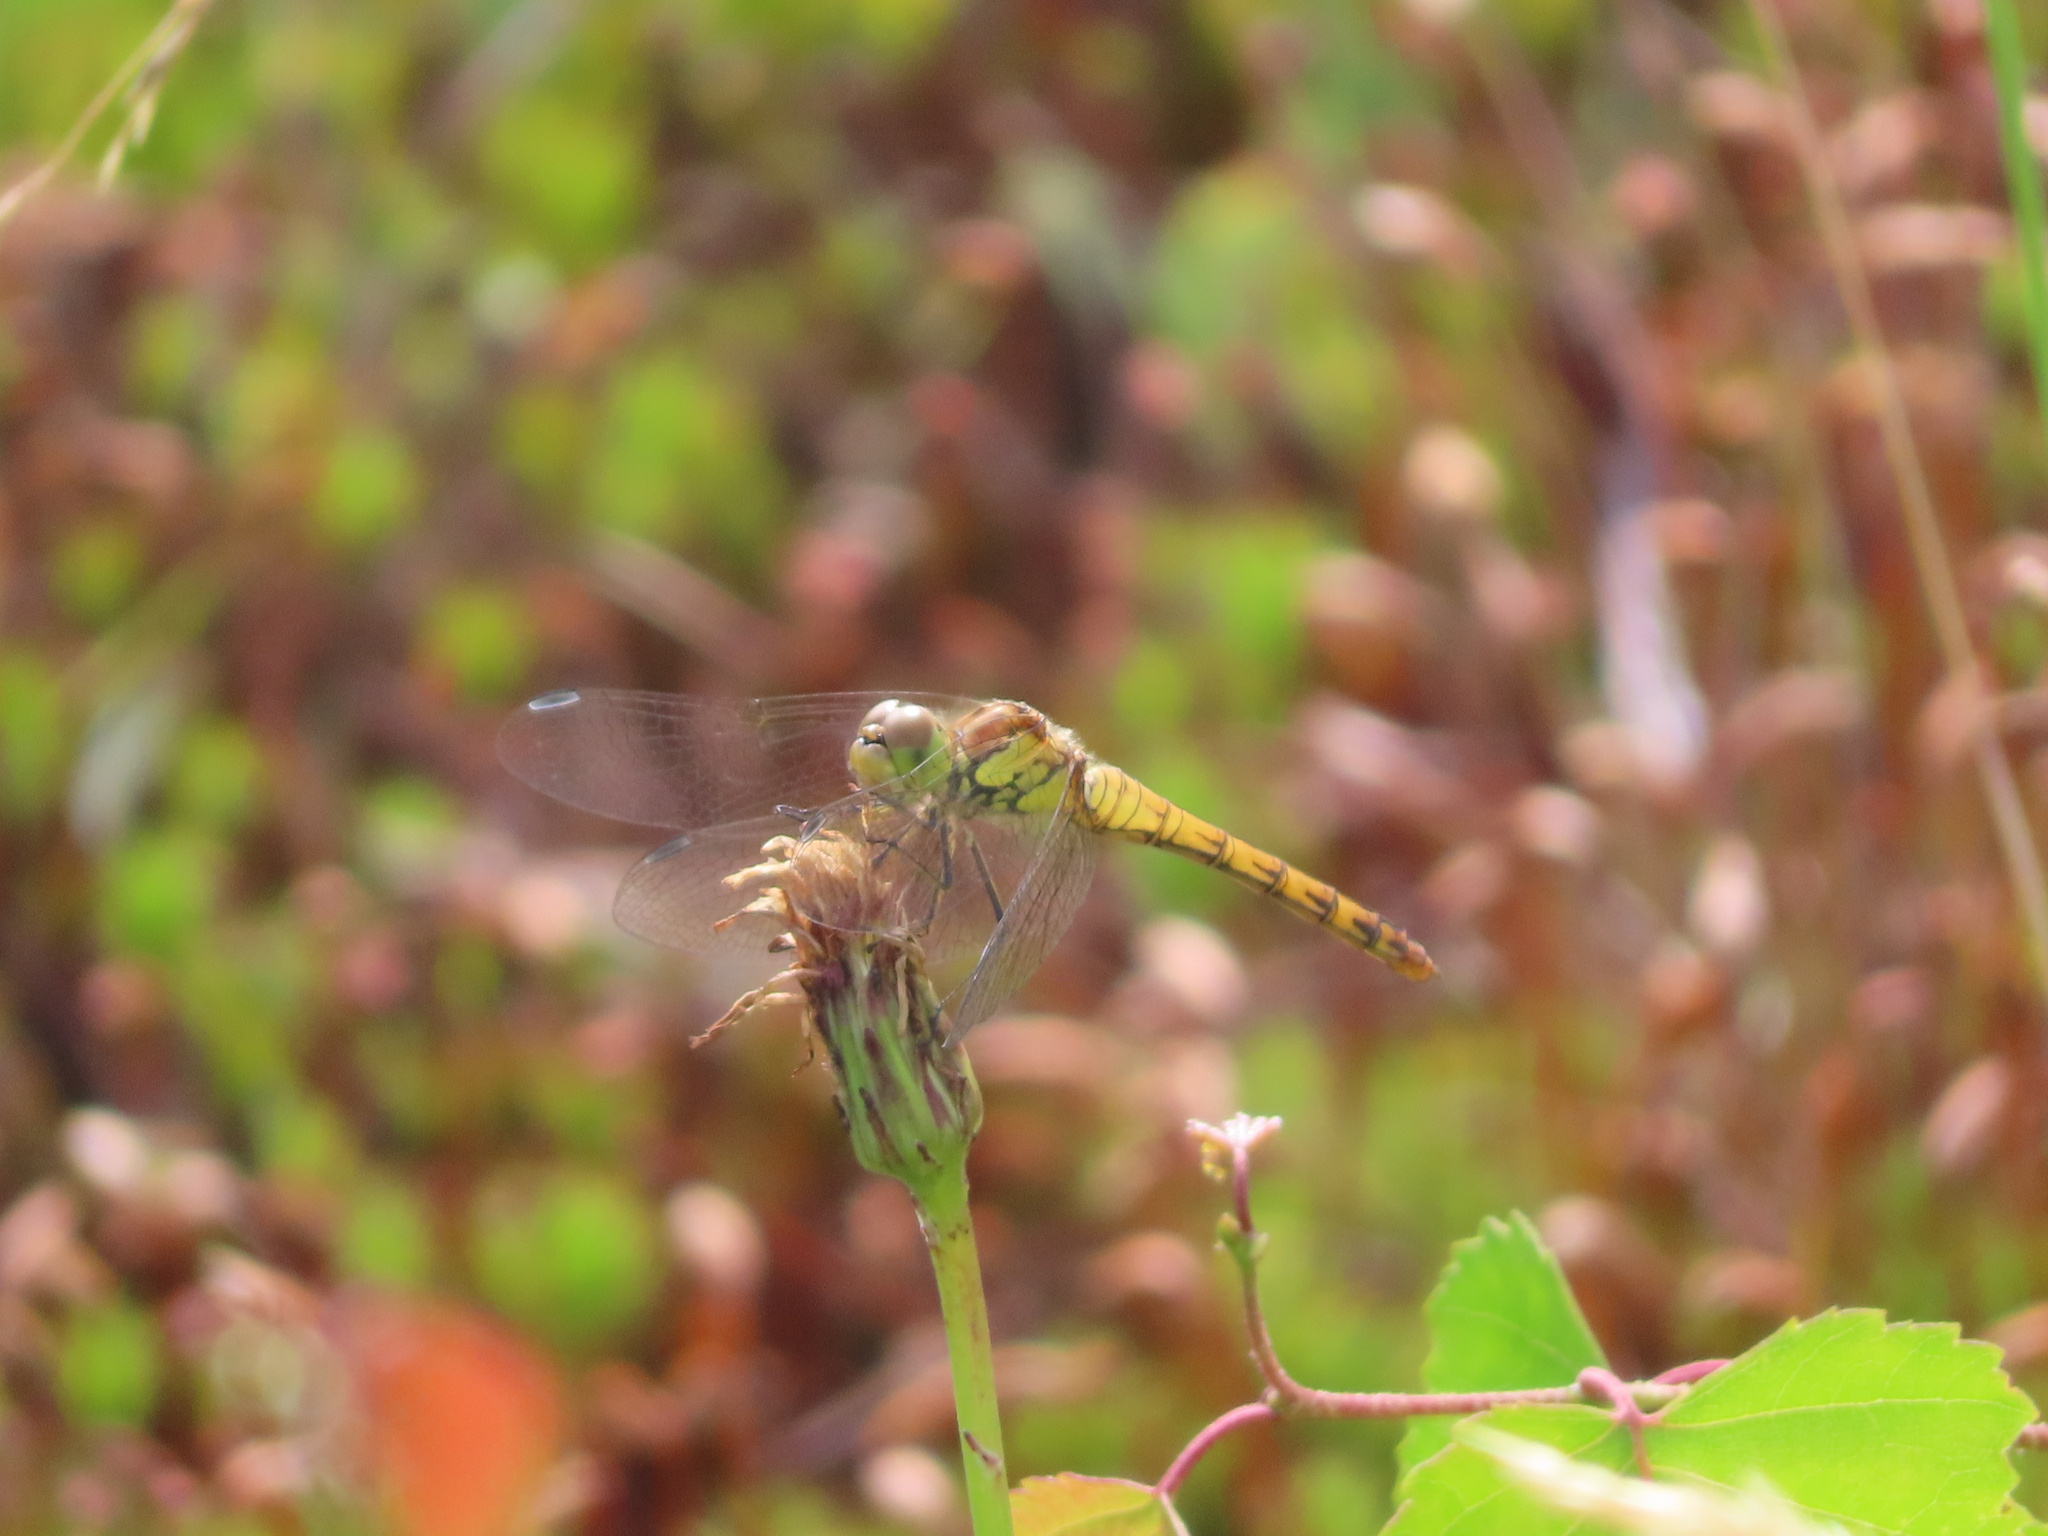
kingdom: Animalia
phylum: Arthropoda
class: Insecta
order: Odonata
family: Libellulidae
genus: Sympetrum
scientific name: Sympetrum striolatum
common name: Common darter
